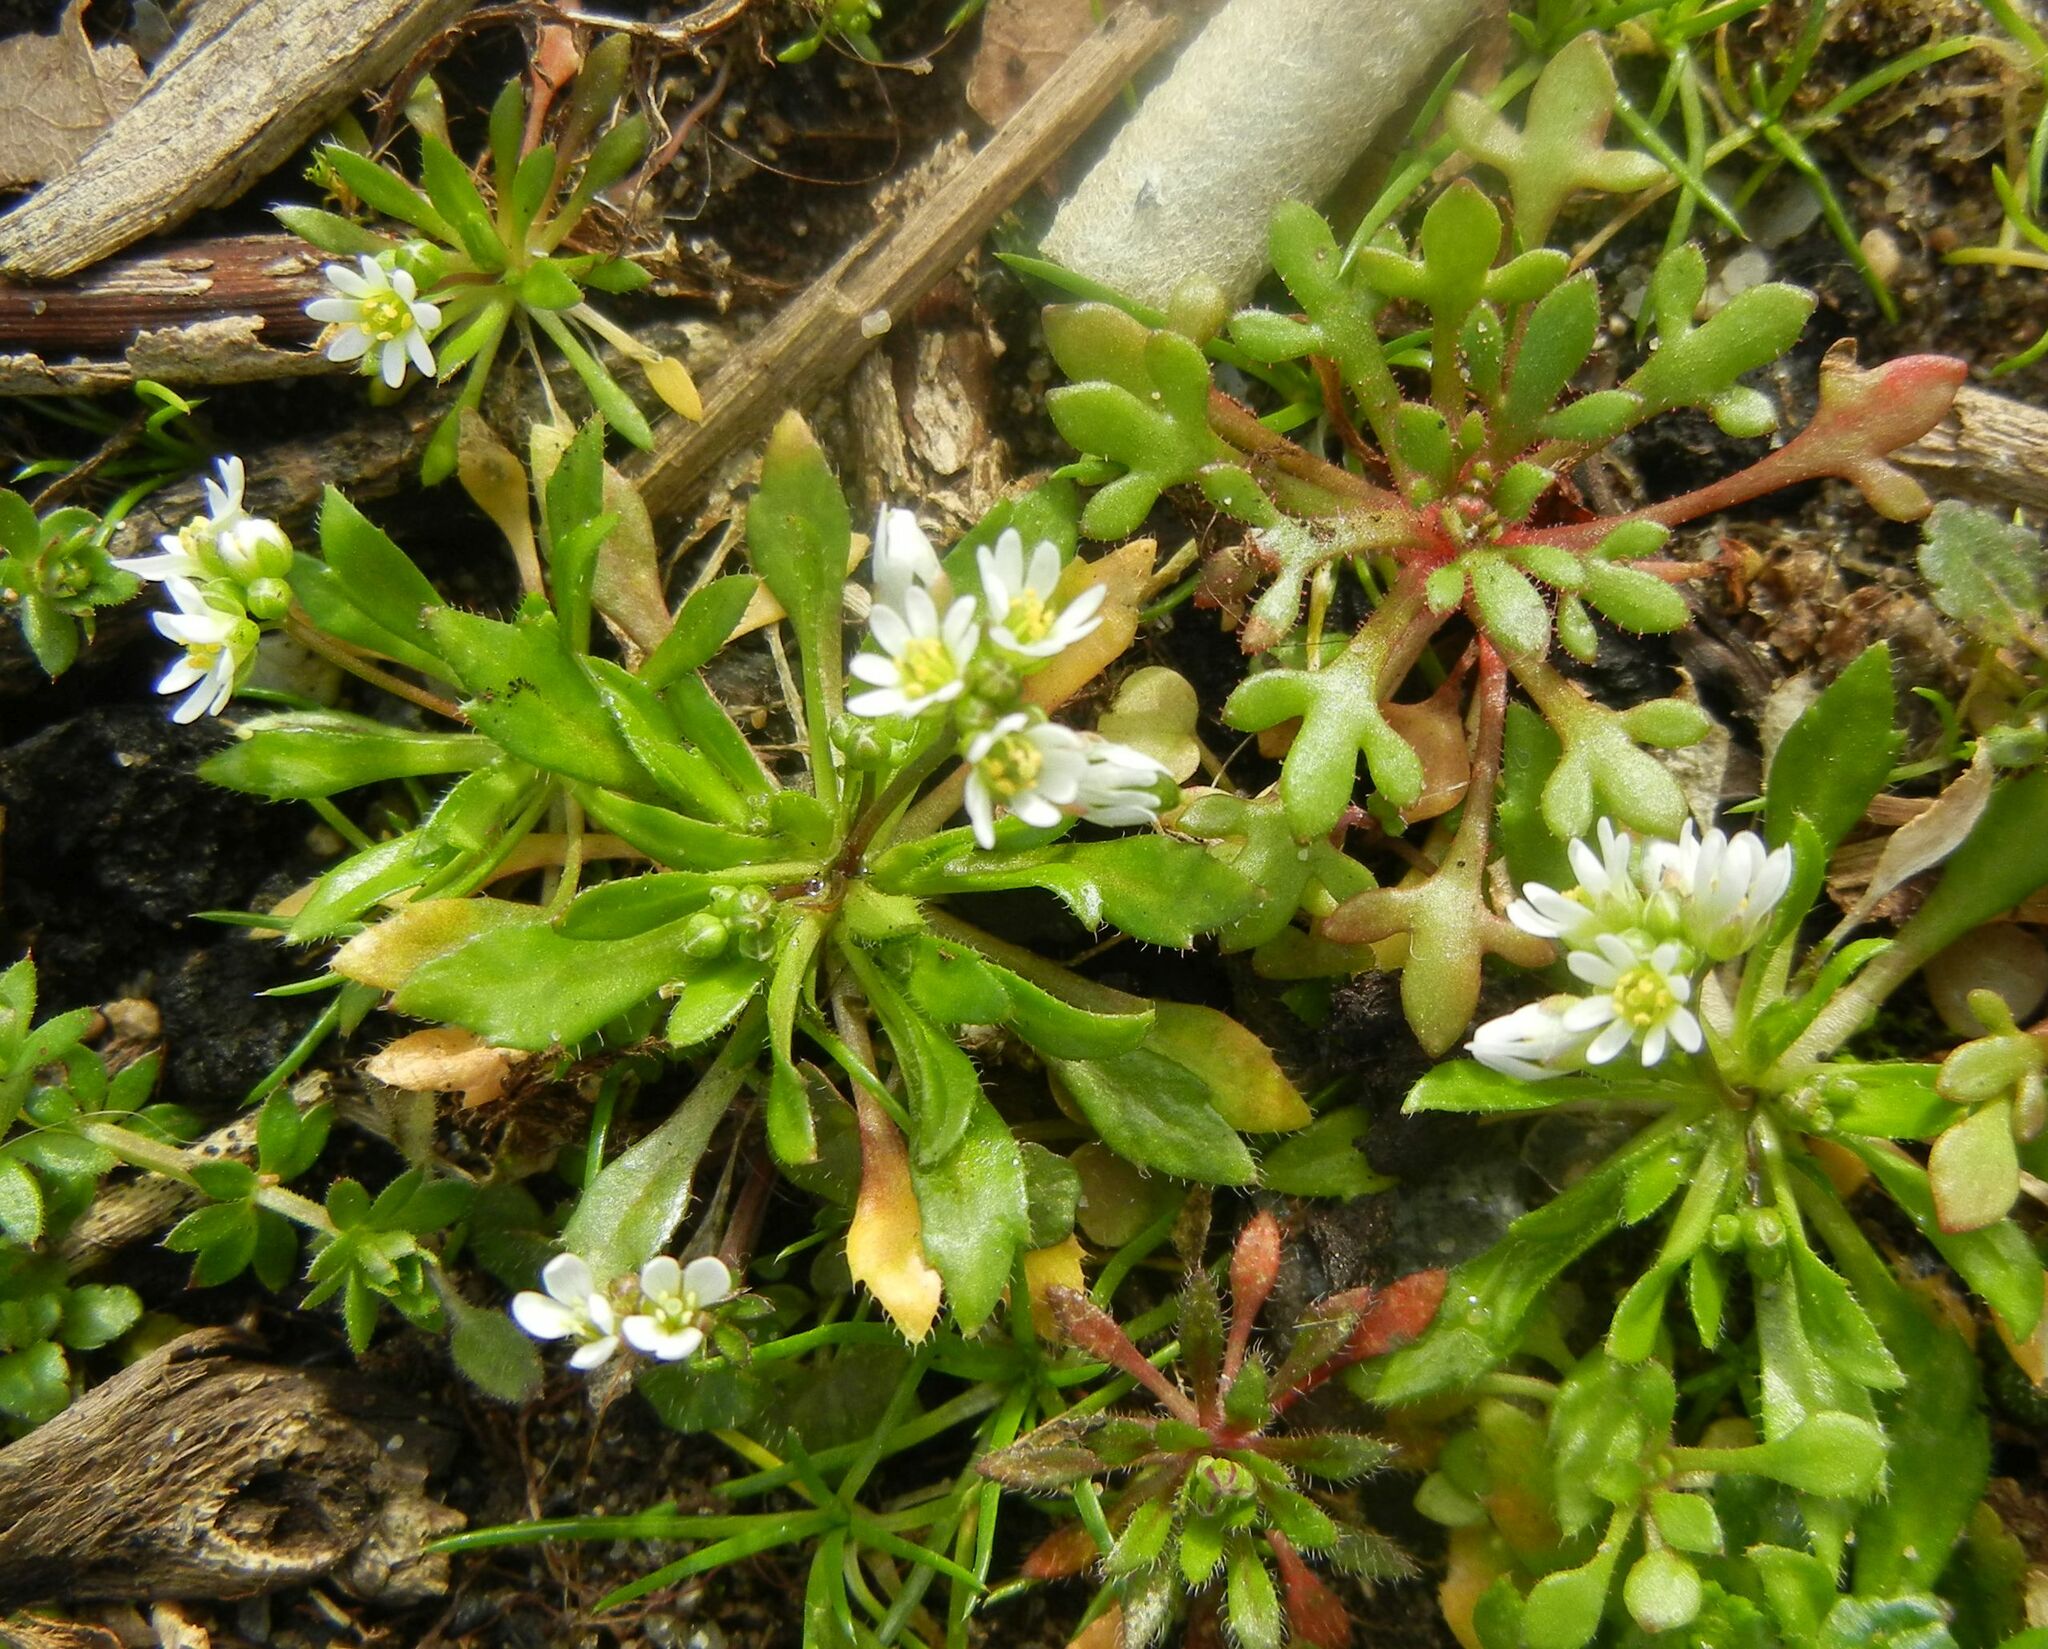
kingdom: Plantae
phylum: Tracheophyta
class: Magnoliopsida
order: Brassicales
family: Brassicaceae
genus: Draba
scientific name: Draba verna
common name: Spring draba
